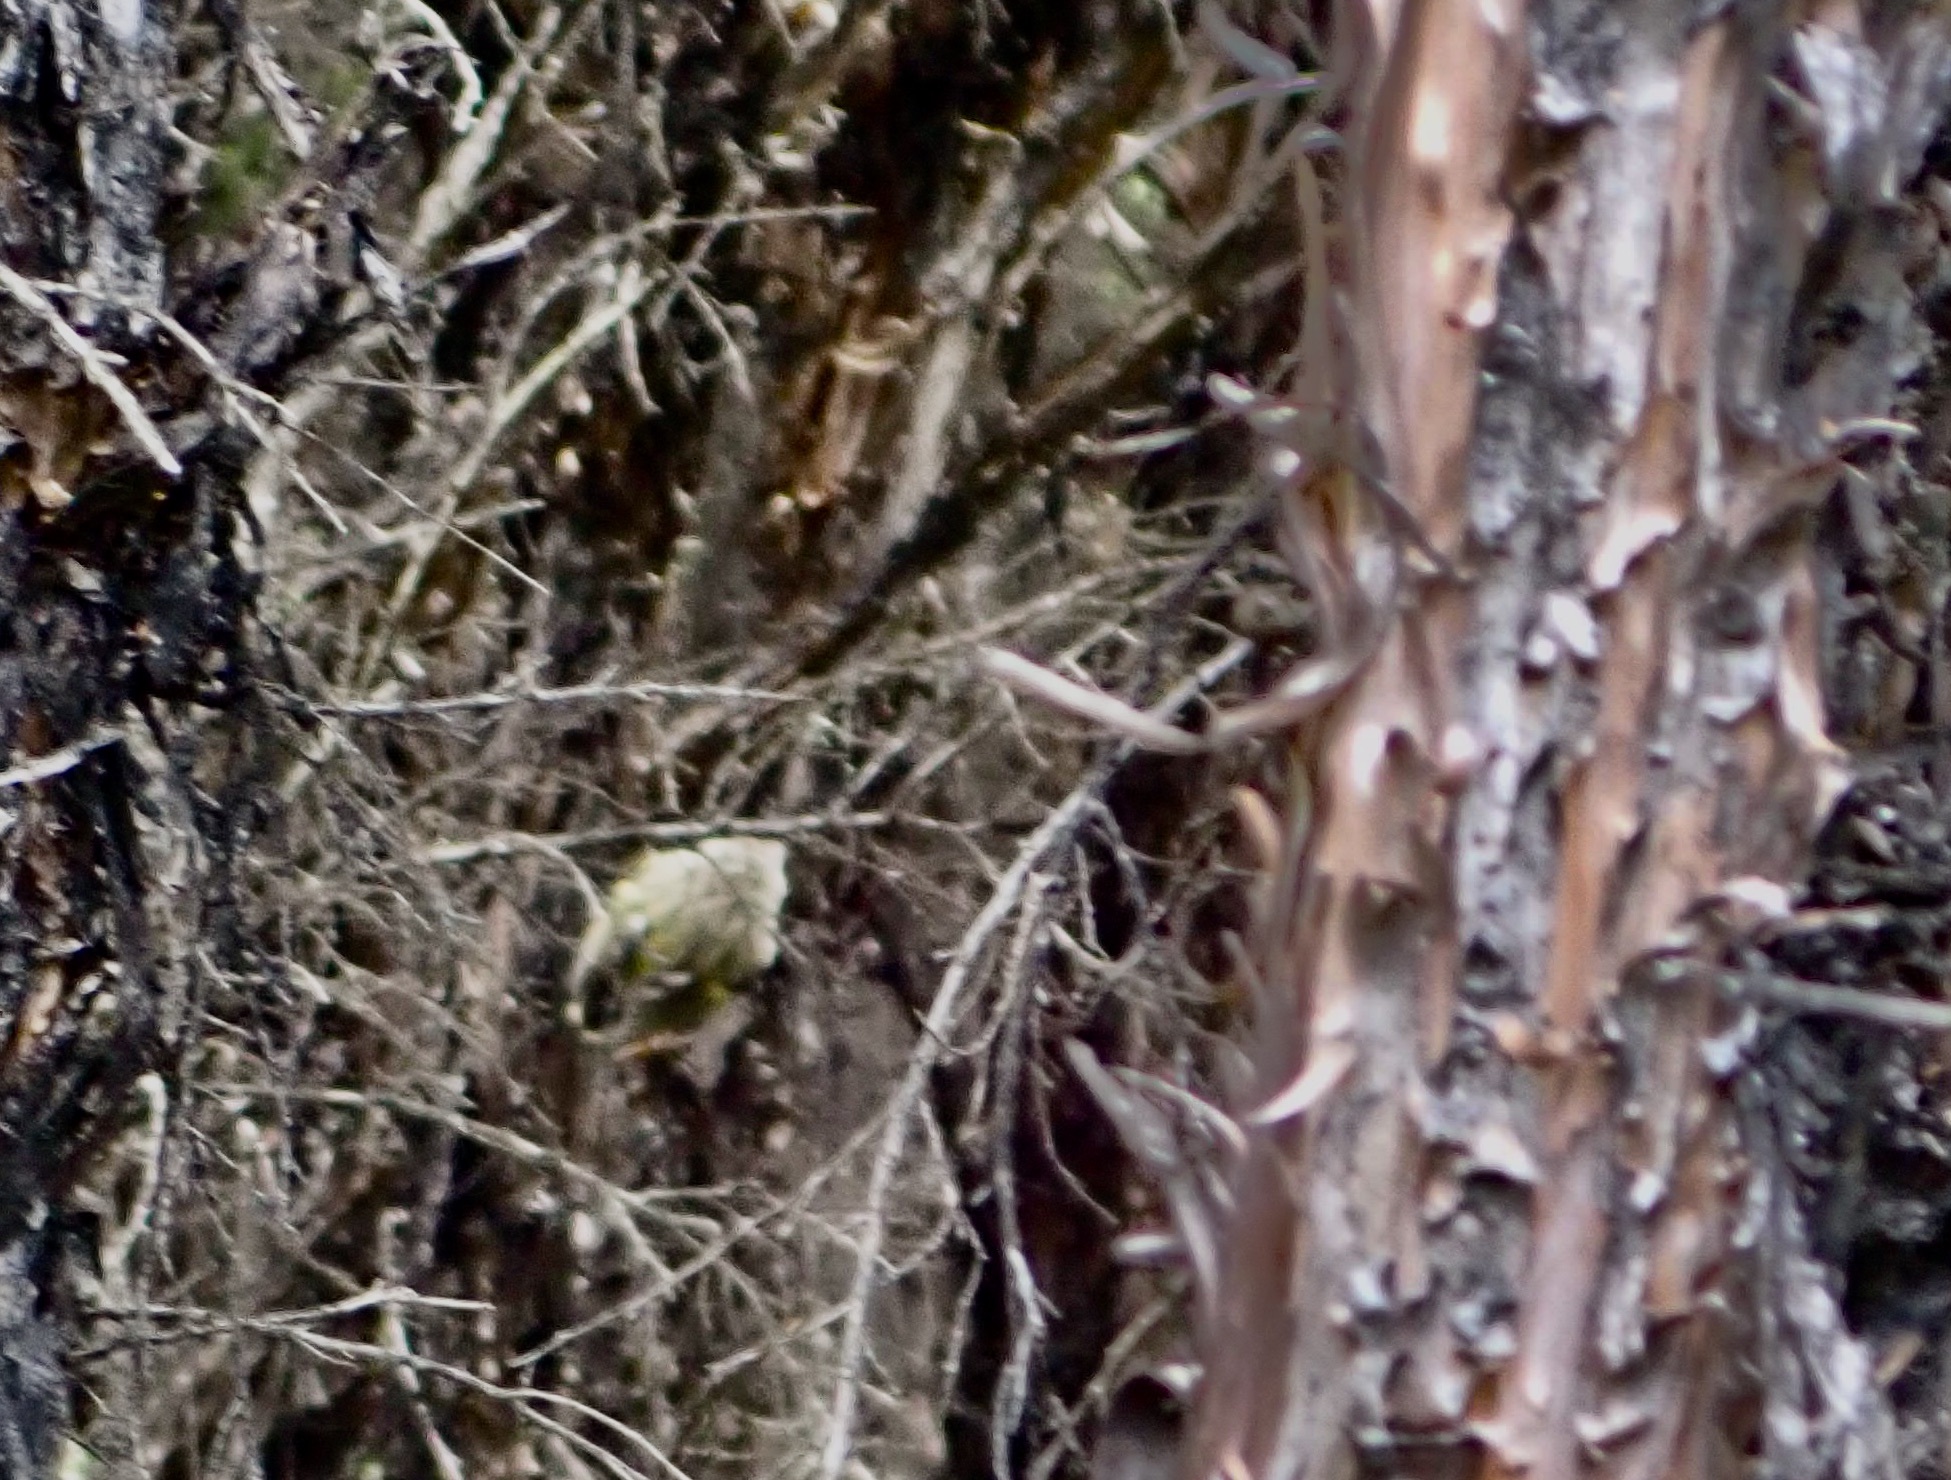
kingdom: Animalia
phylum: Chordata
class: Aves
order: Passeriformes
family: Acanthisittidae
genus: Acanthisitta
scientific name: Acanthisitta chloris
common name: Rifleman
